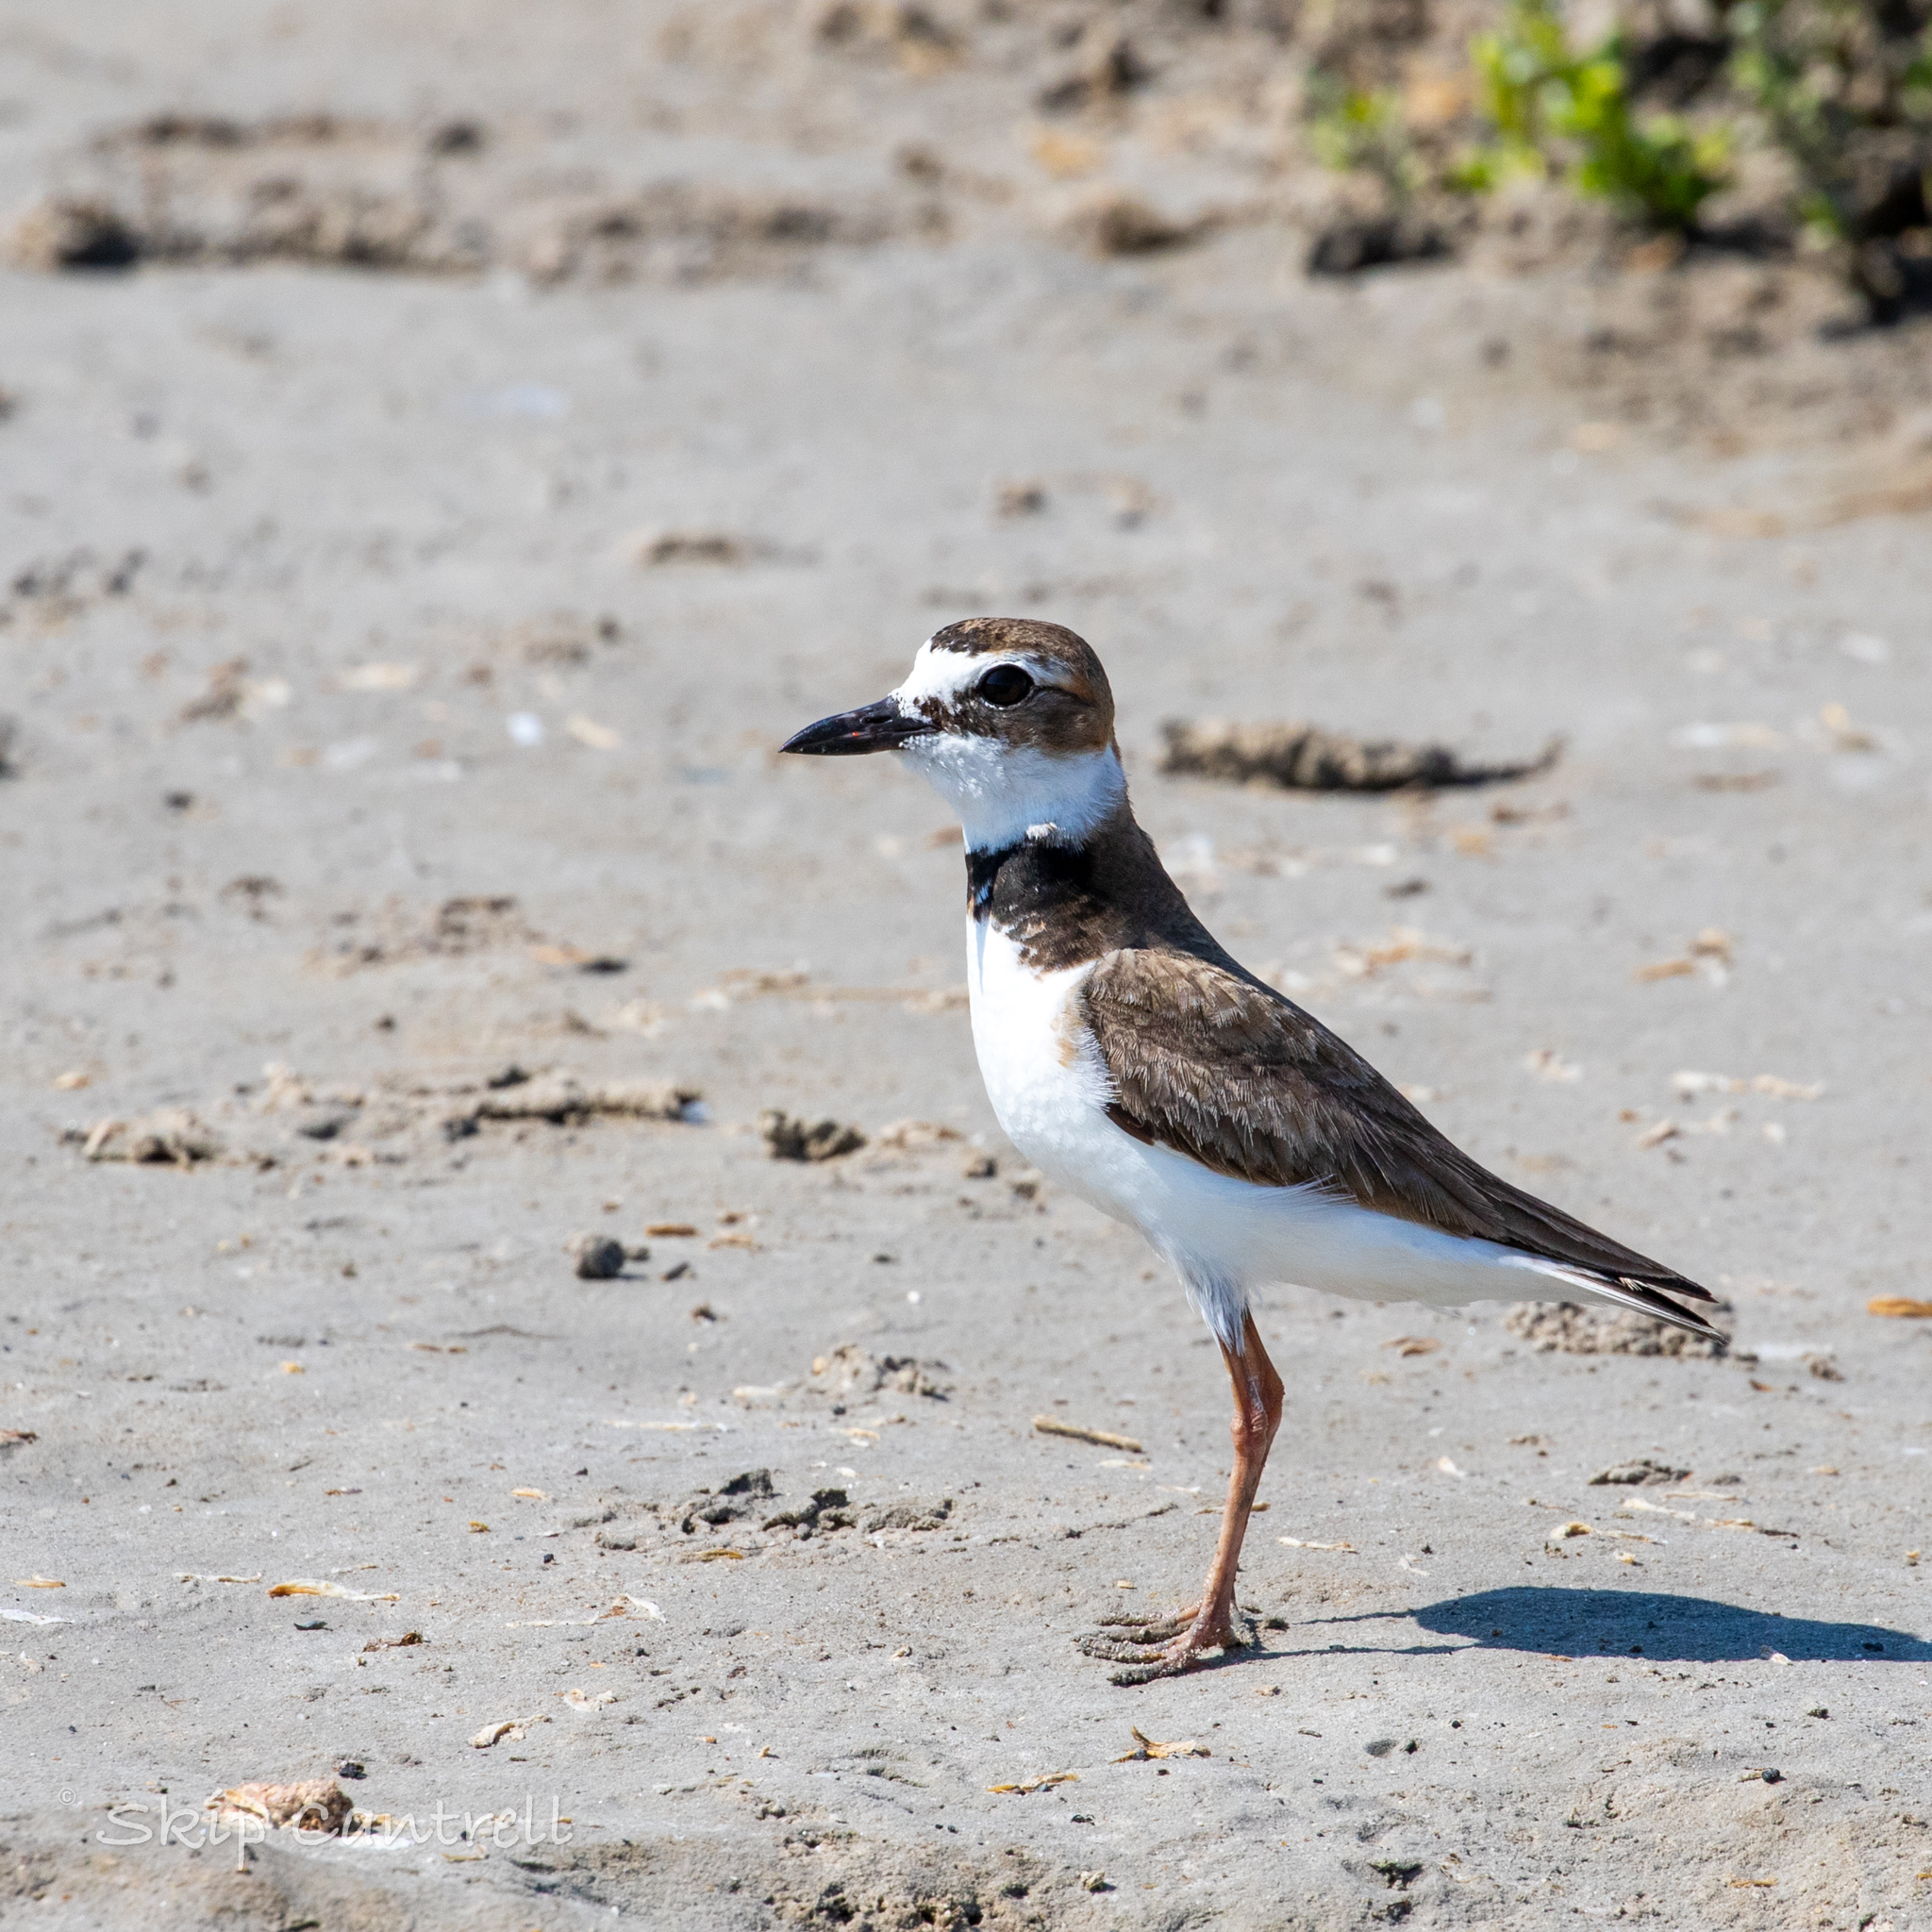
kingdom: Animalia
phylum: Chordata
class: Aves
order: Charadriiformes
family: Charadriidae
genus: Anarhynchus
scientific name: Anarhynchus
